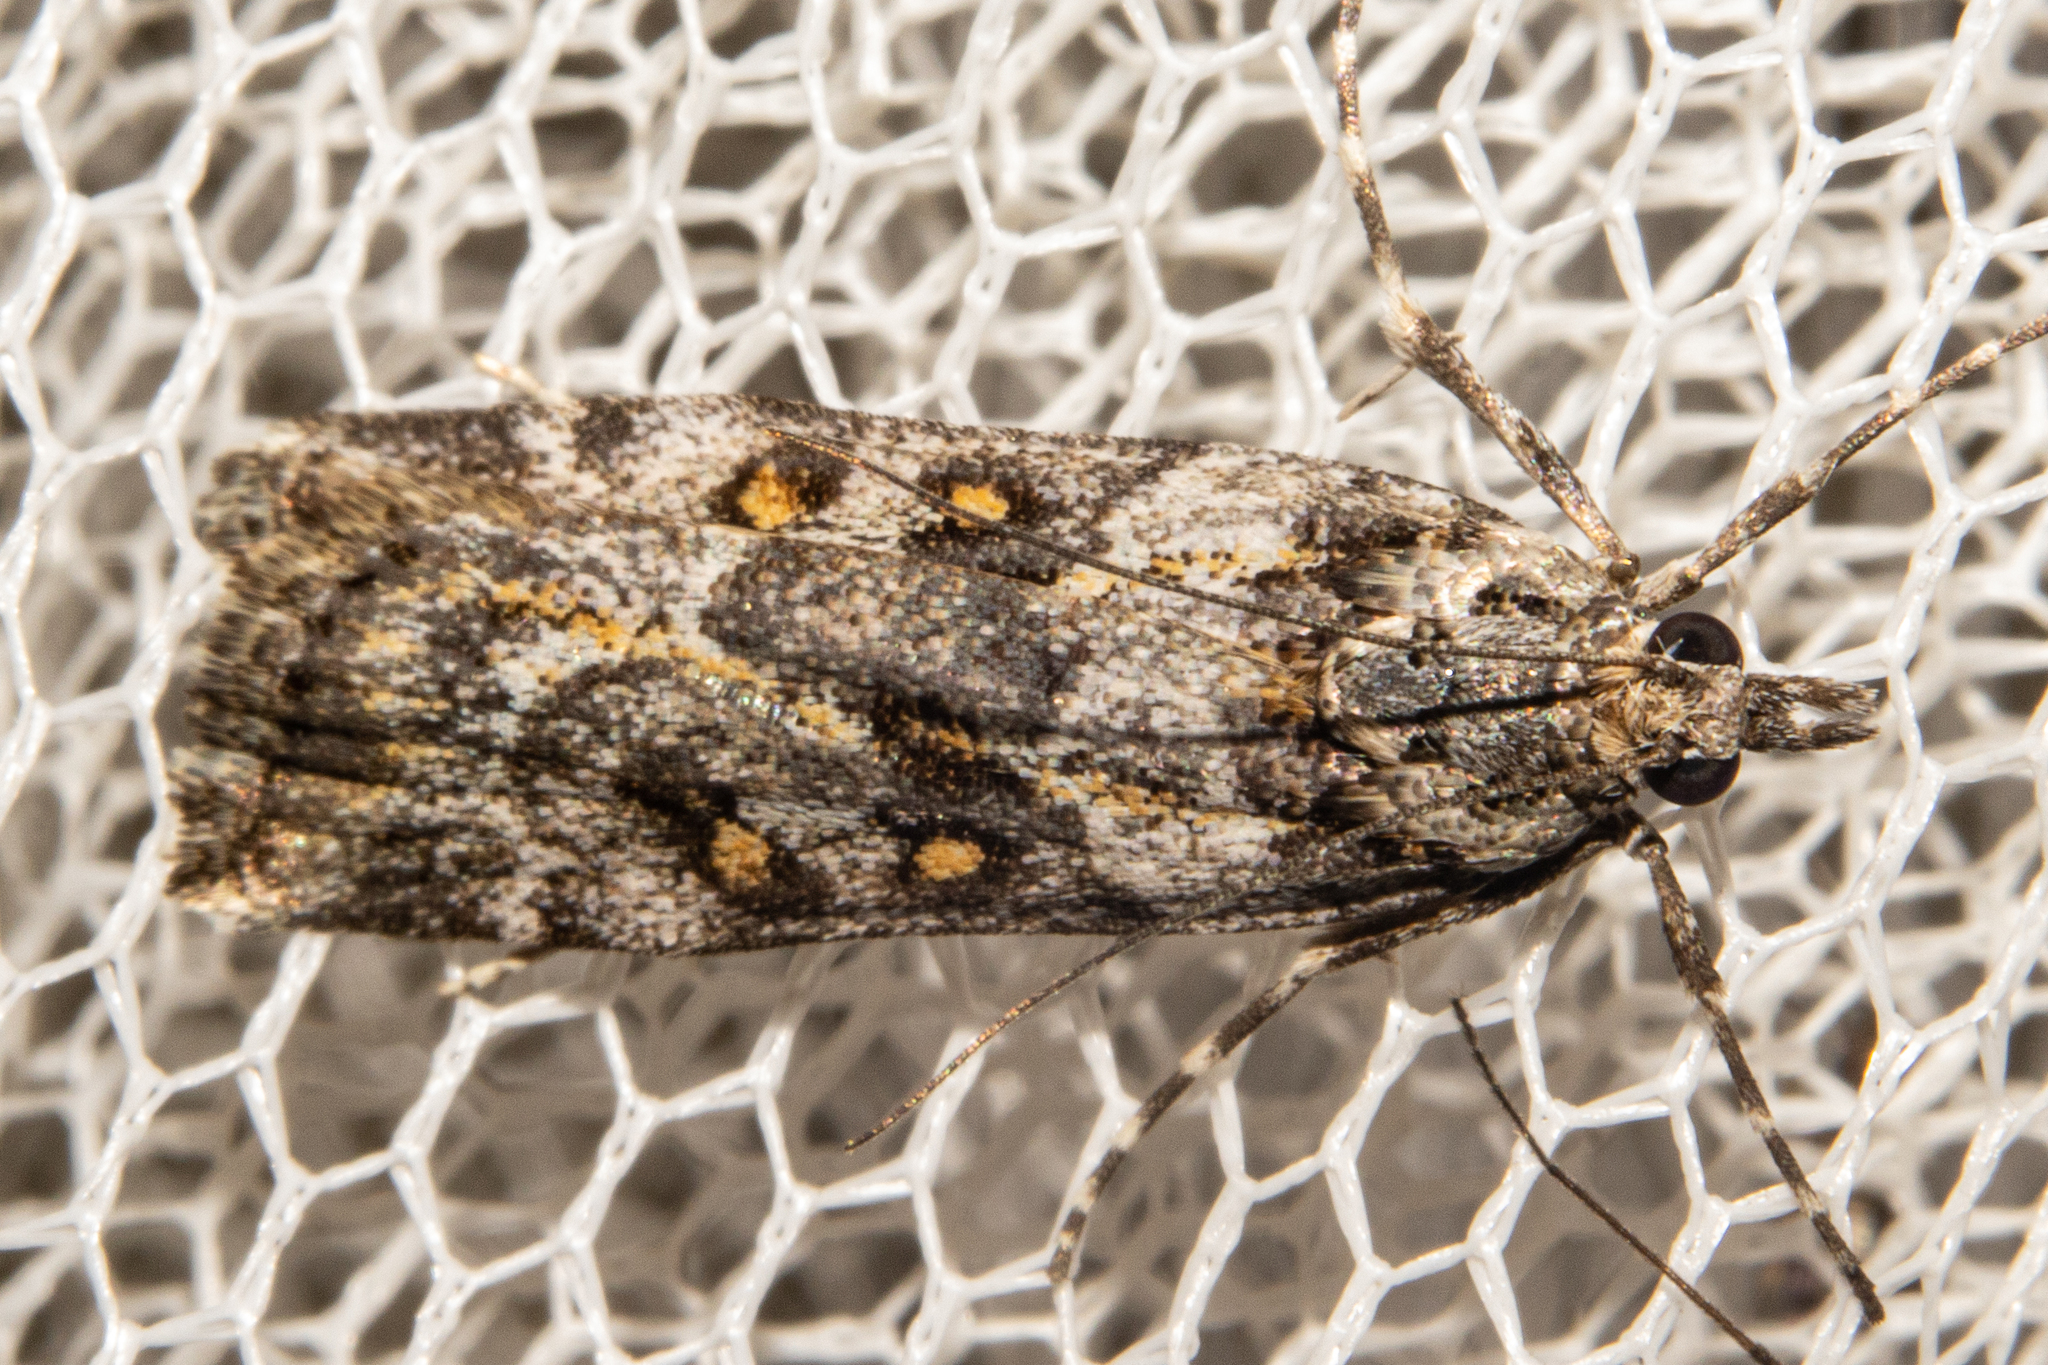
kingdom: Animalia
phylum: Arthropoda
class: Insecta
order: Lepidoptera
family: Crambidae
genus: Eudonia
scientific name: Eudonia diphtheralis
